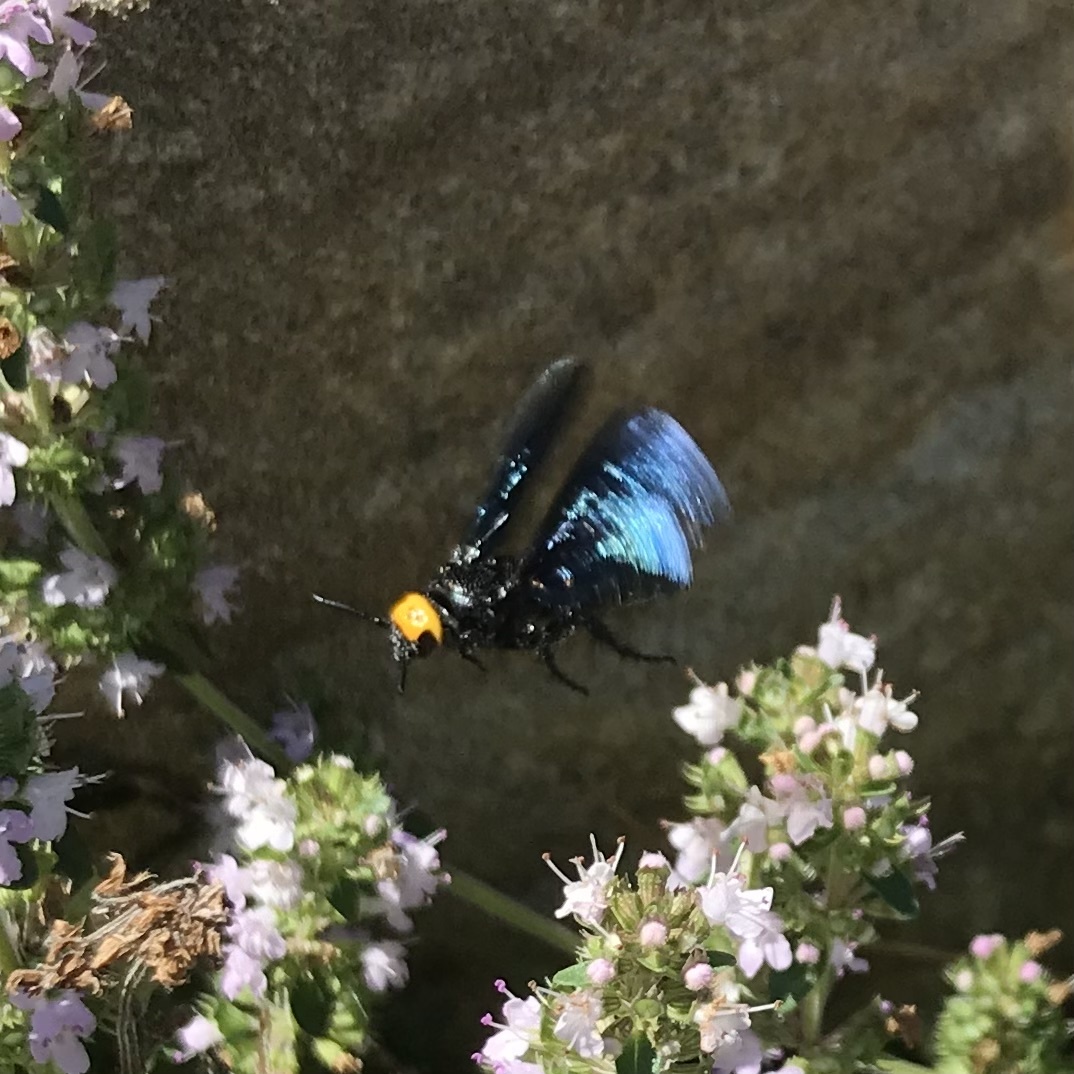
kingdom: Animalia
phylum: Arthropoda
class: Insecta
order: Hymenoptera
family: Scoliidae
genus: Scolia
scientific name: Scolia verticalis
